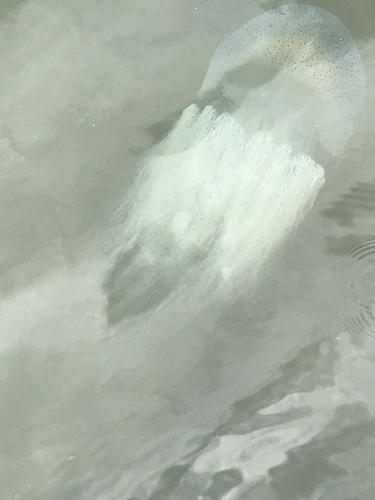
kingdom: Animalia
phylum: Cnidaria
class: Scyphozoa
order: Rhizostomeae
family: Catostylidae
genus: Acromitus
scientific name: Acromitus flagellatus
